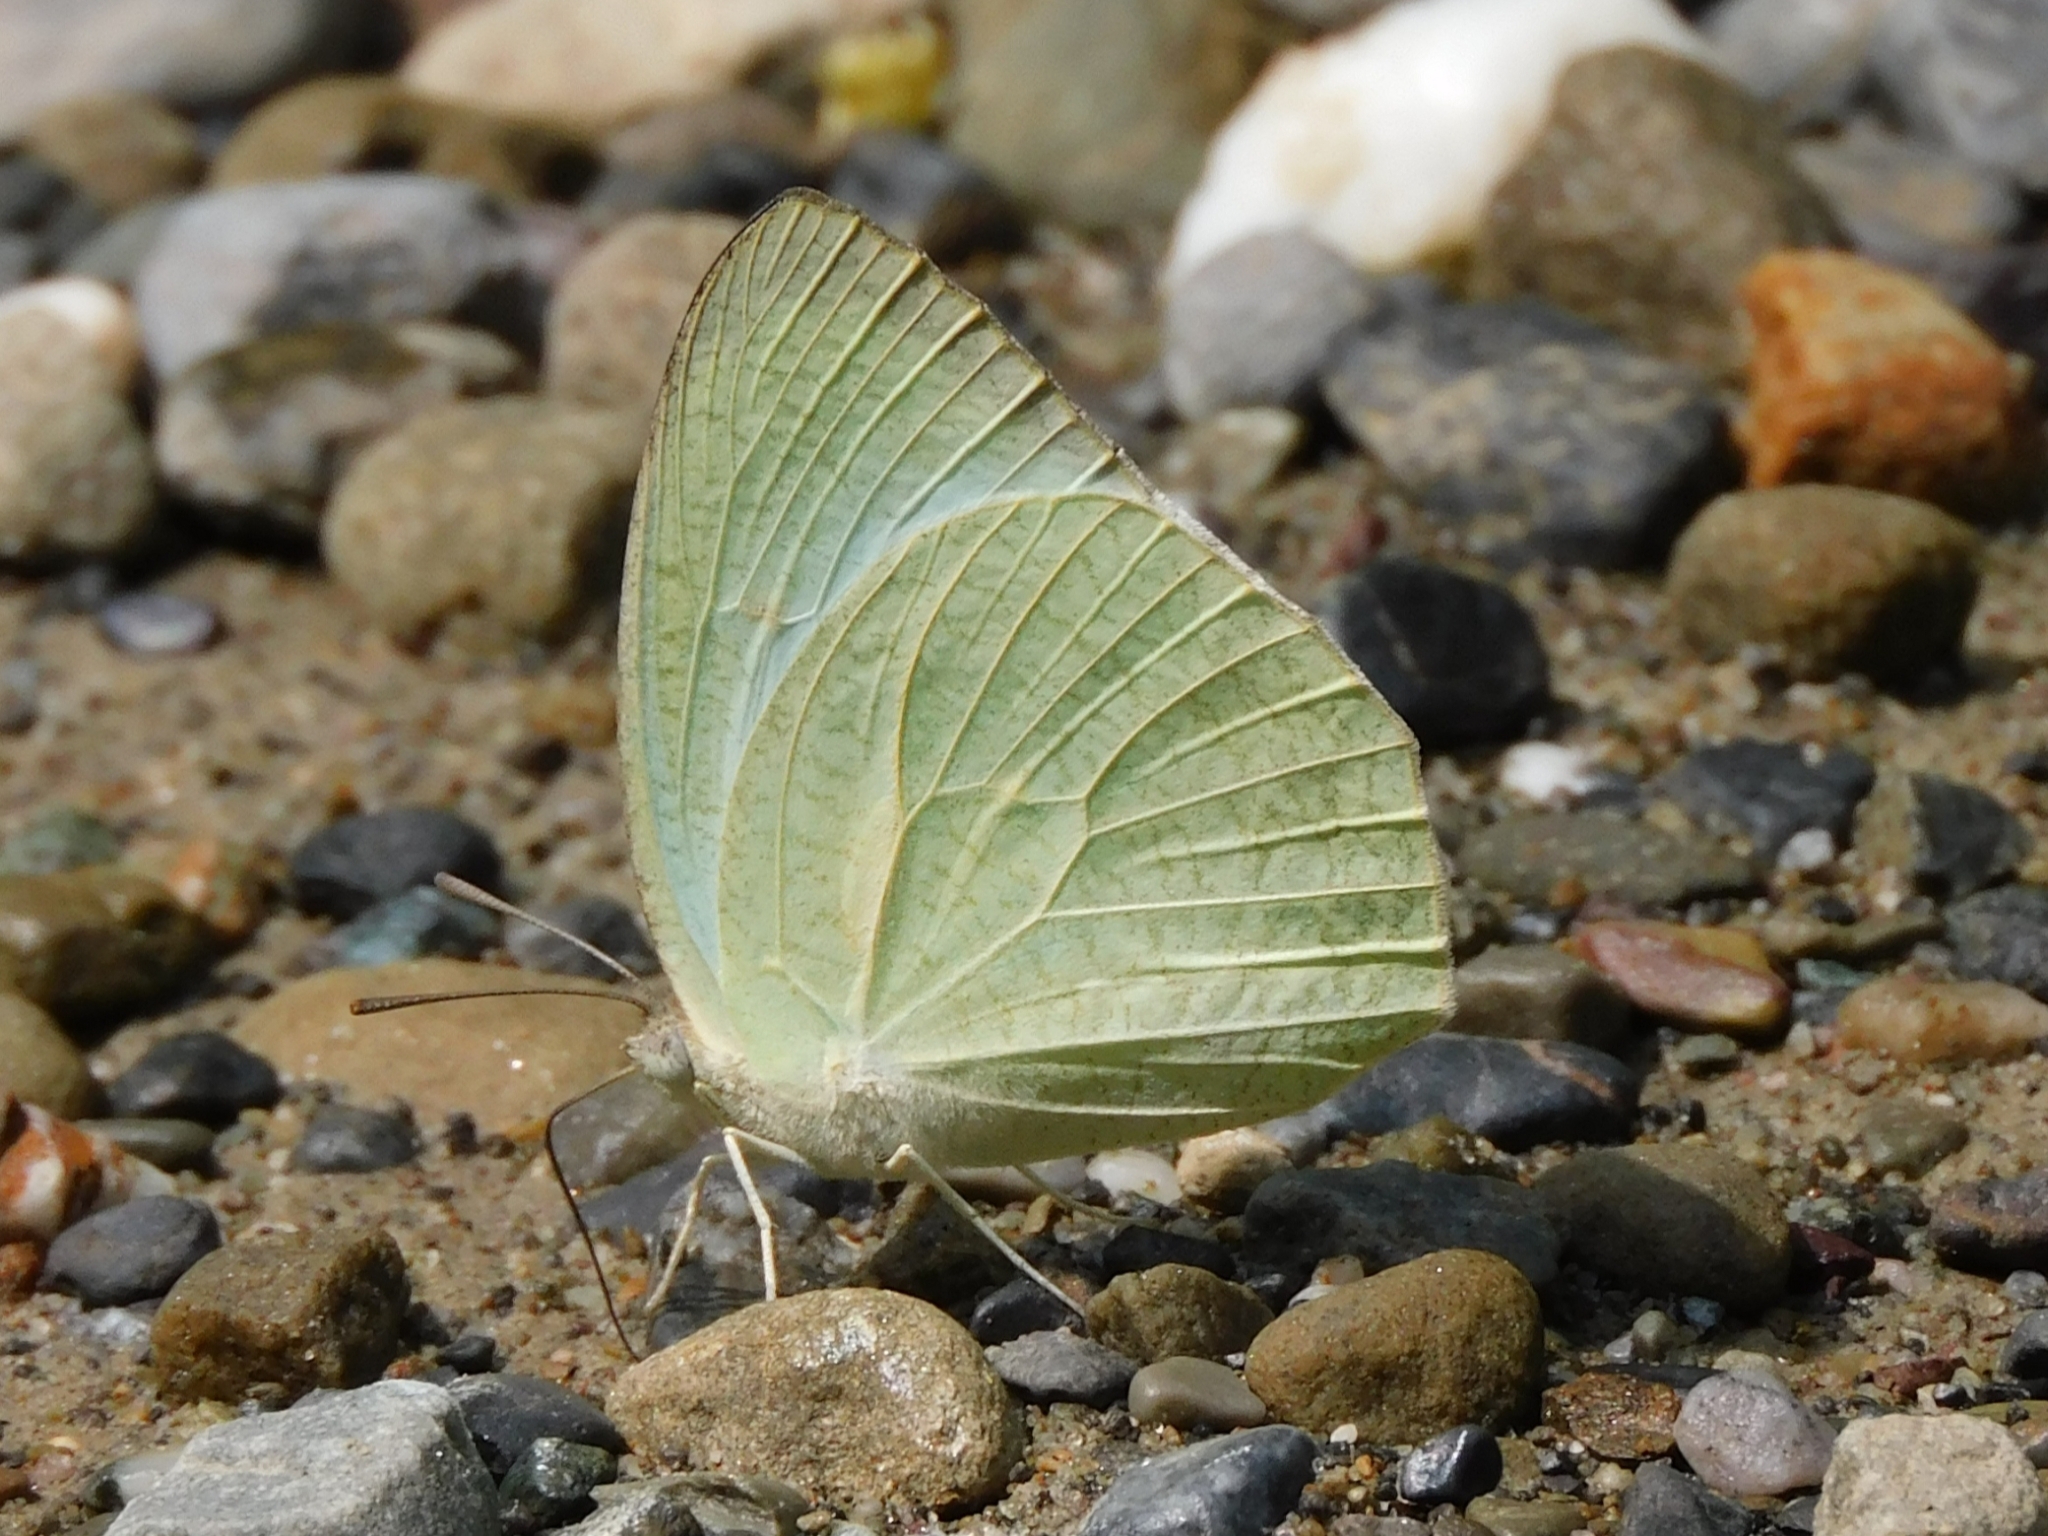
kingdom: Animalia
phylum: Arthropoda
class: Insecta
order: Lepidoptera
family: Pieridae
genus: Catopsilia
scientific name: Catopsilia pyranthe
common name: Mottled emigrant
